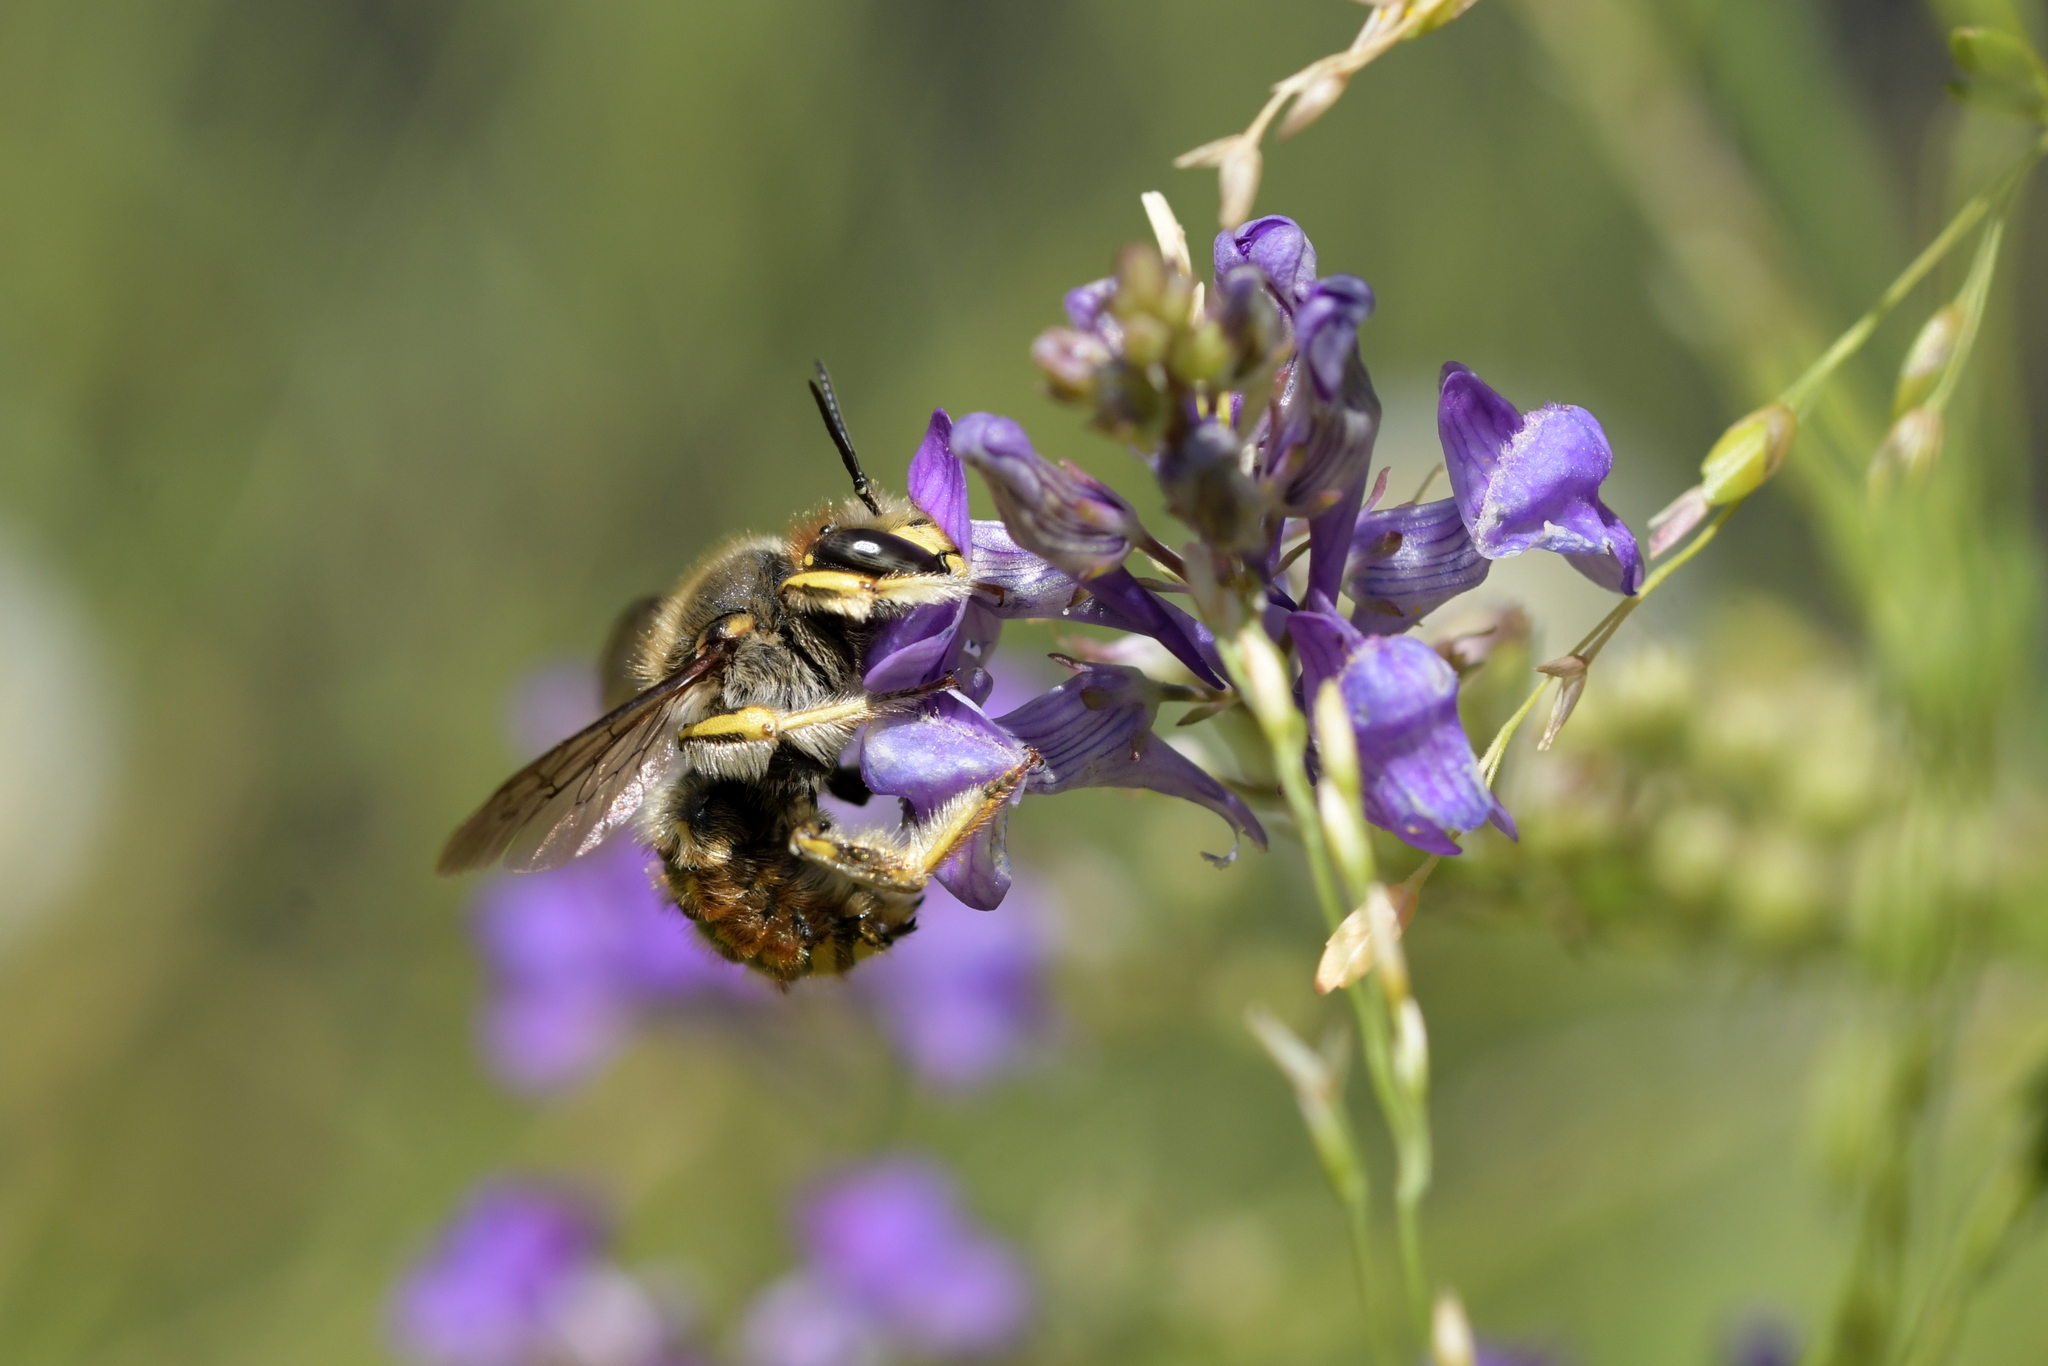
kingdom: Animalia
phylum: Arthropoda
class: Insecta
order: Hymenoptera
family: Megachilidae
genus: Anthidium
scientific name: Anthidium manicatum
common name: Wool carder bee
